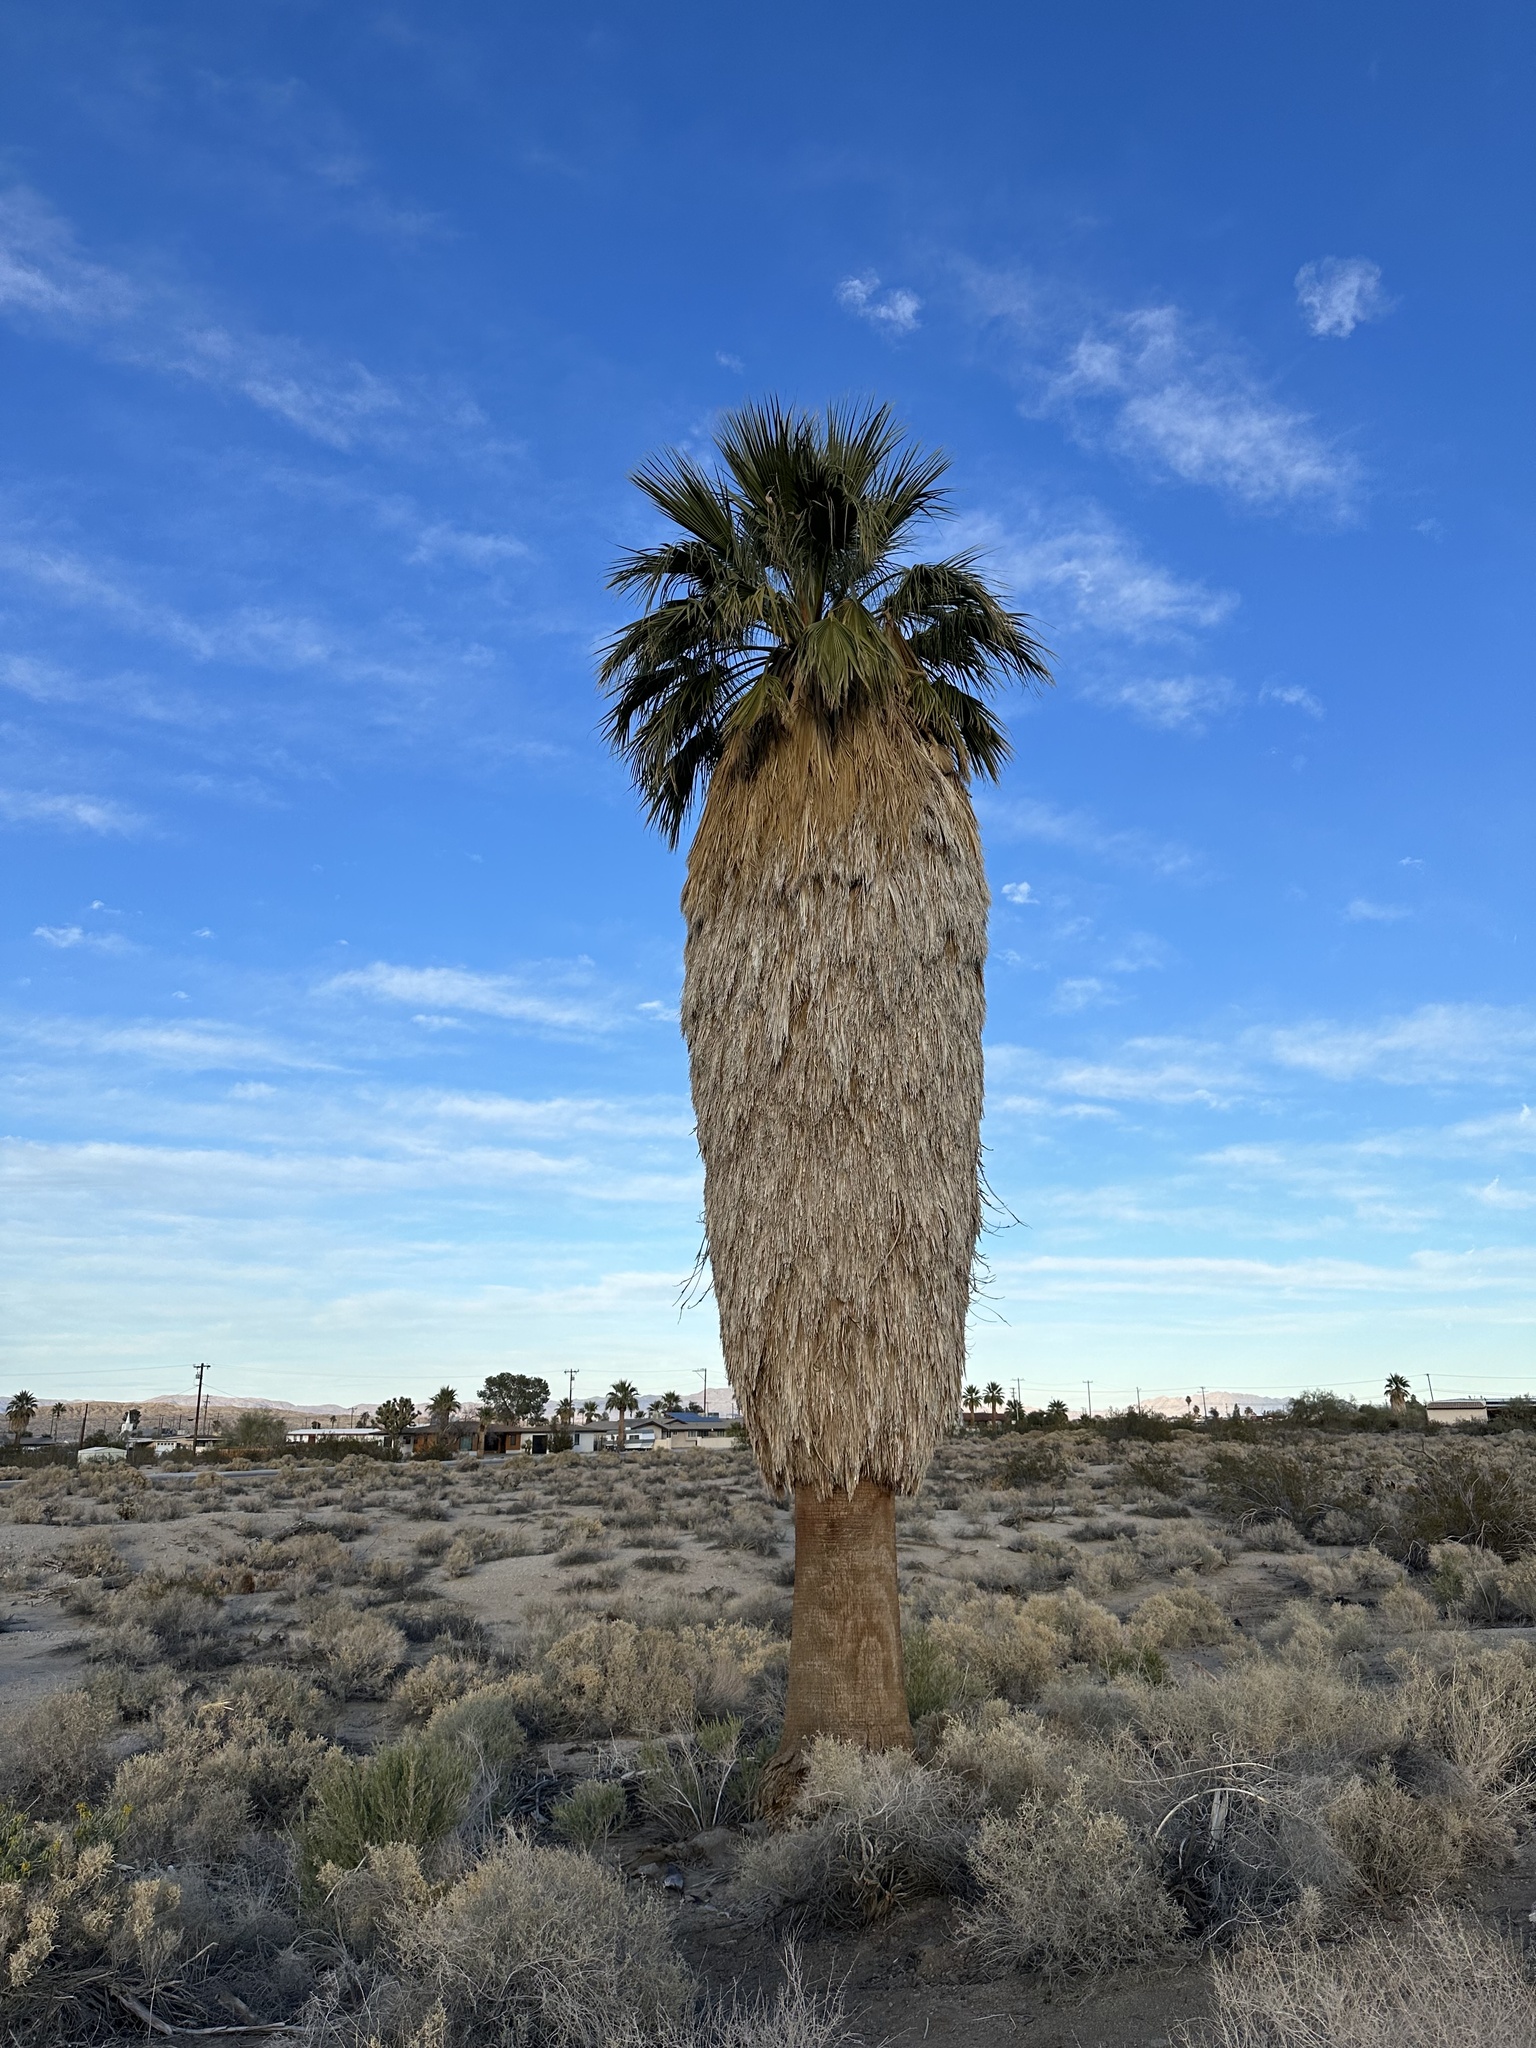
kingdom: Plantae
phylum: Tracheophyta
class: Liliopsida
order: Arecales
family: Arecaceae
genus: Washingtonia
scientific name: Washingtonia filifera
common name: California fan palm
